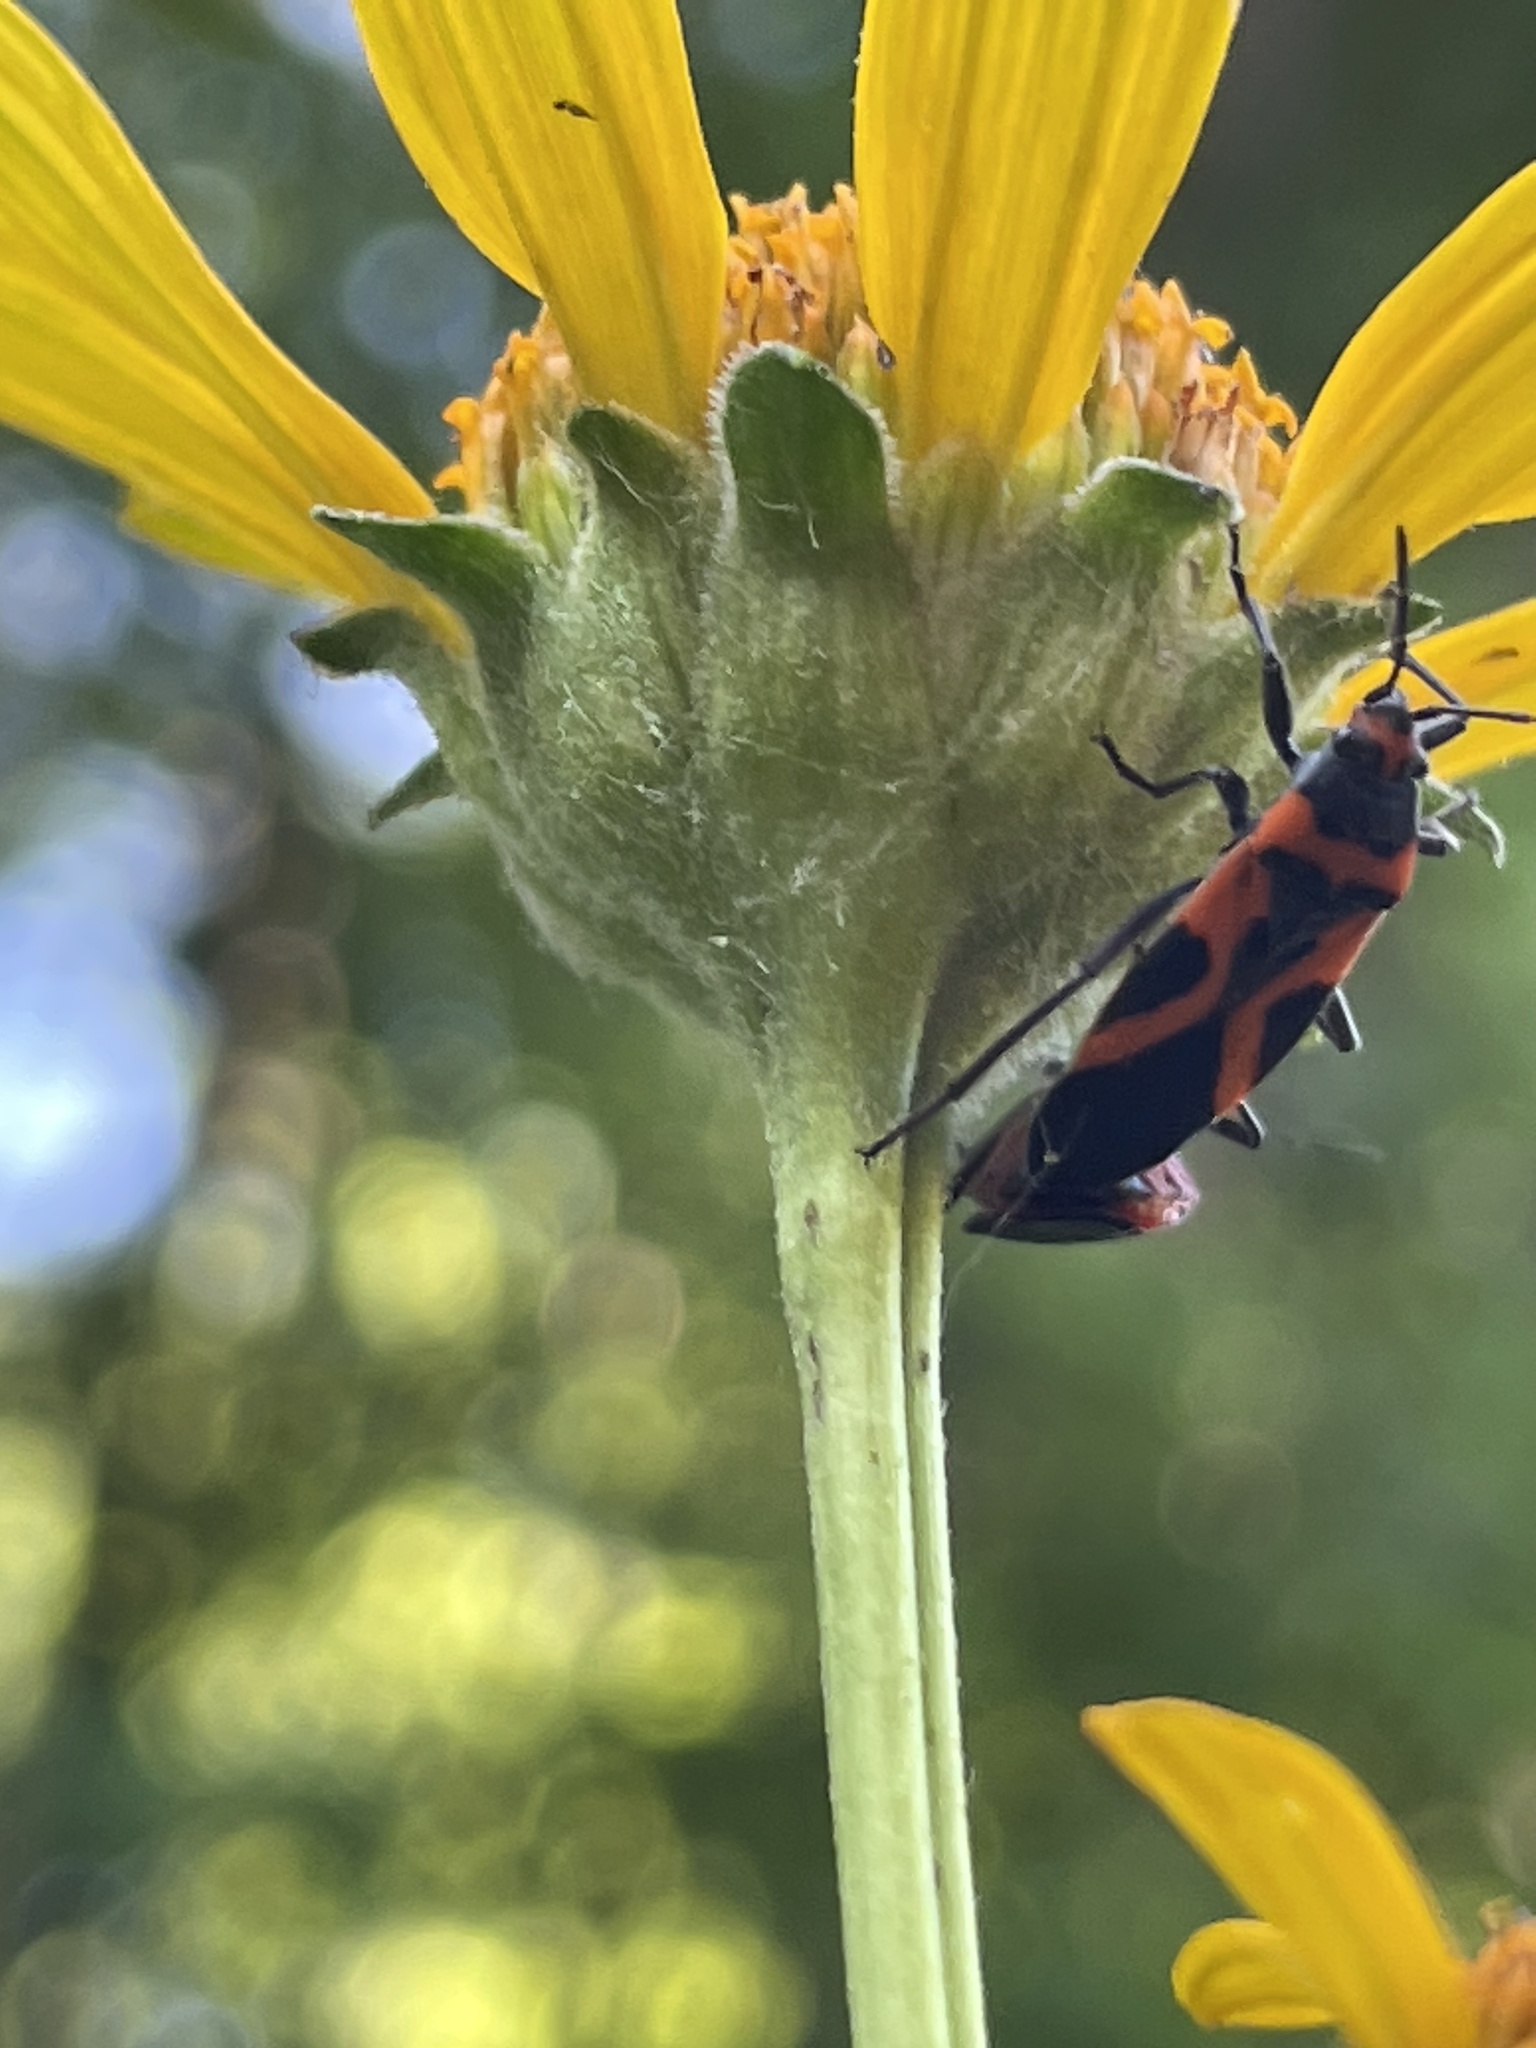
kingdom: Animalia
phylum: Arthropoda
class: Insecta
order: Hemiptera
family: Lygaeidae
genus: Lygaeus
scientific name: Lygaeus turcicus
